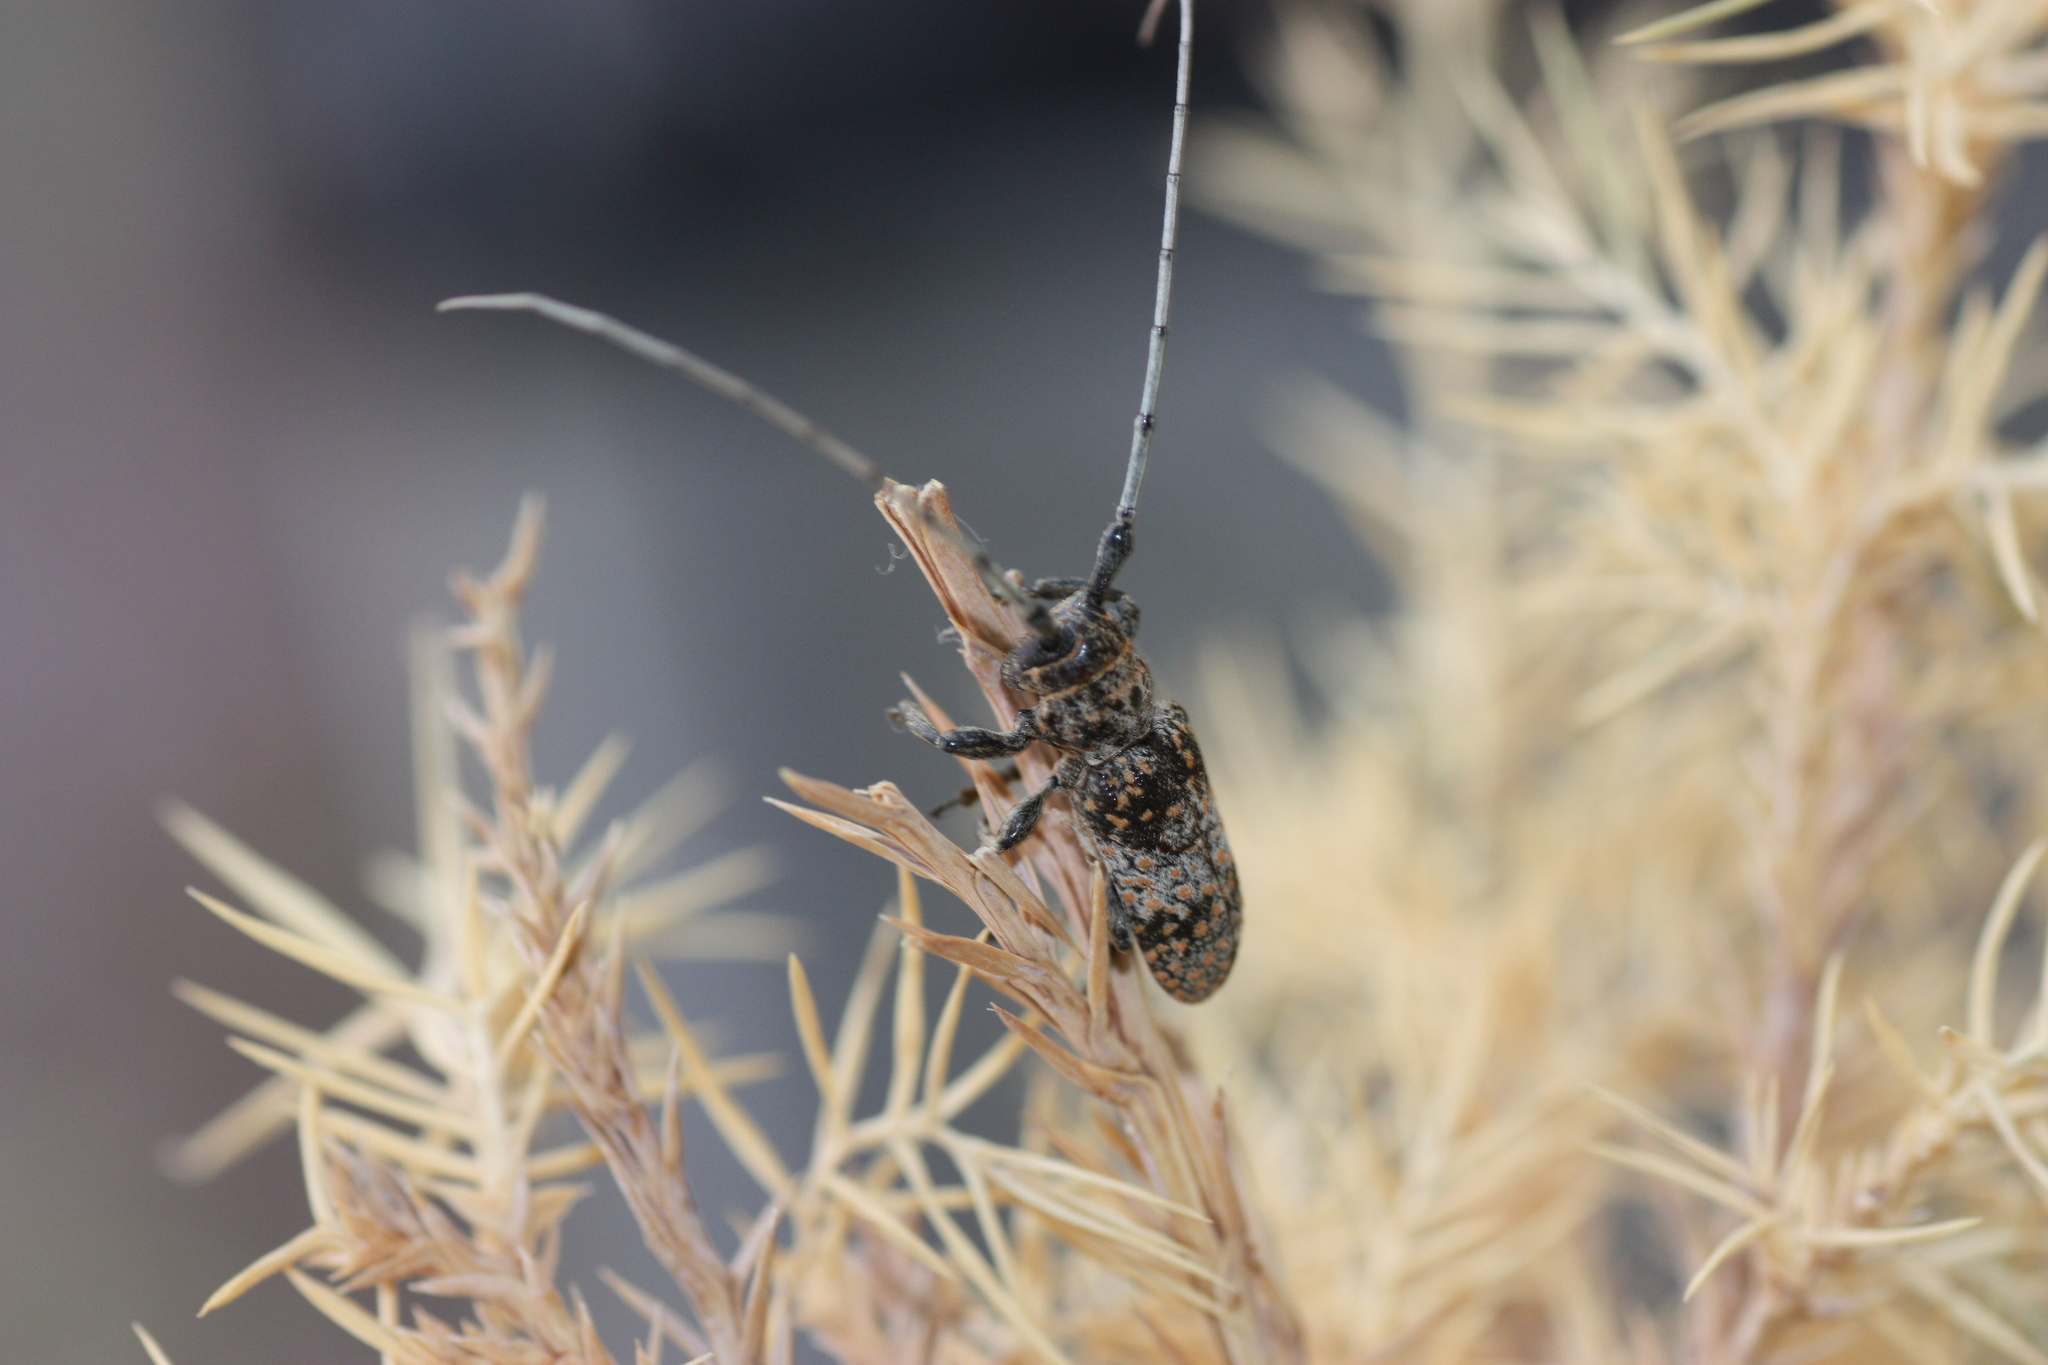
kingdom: Animalia
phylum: Arthropoda
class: Insecta
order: Coleoptera
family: Cerambycidae
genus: Oncideres
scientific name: Oncideres rhodosticta
